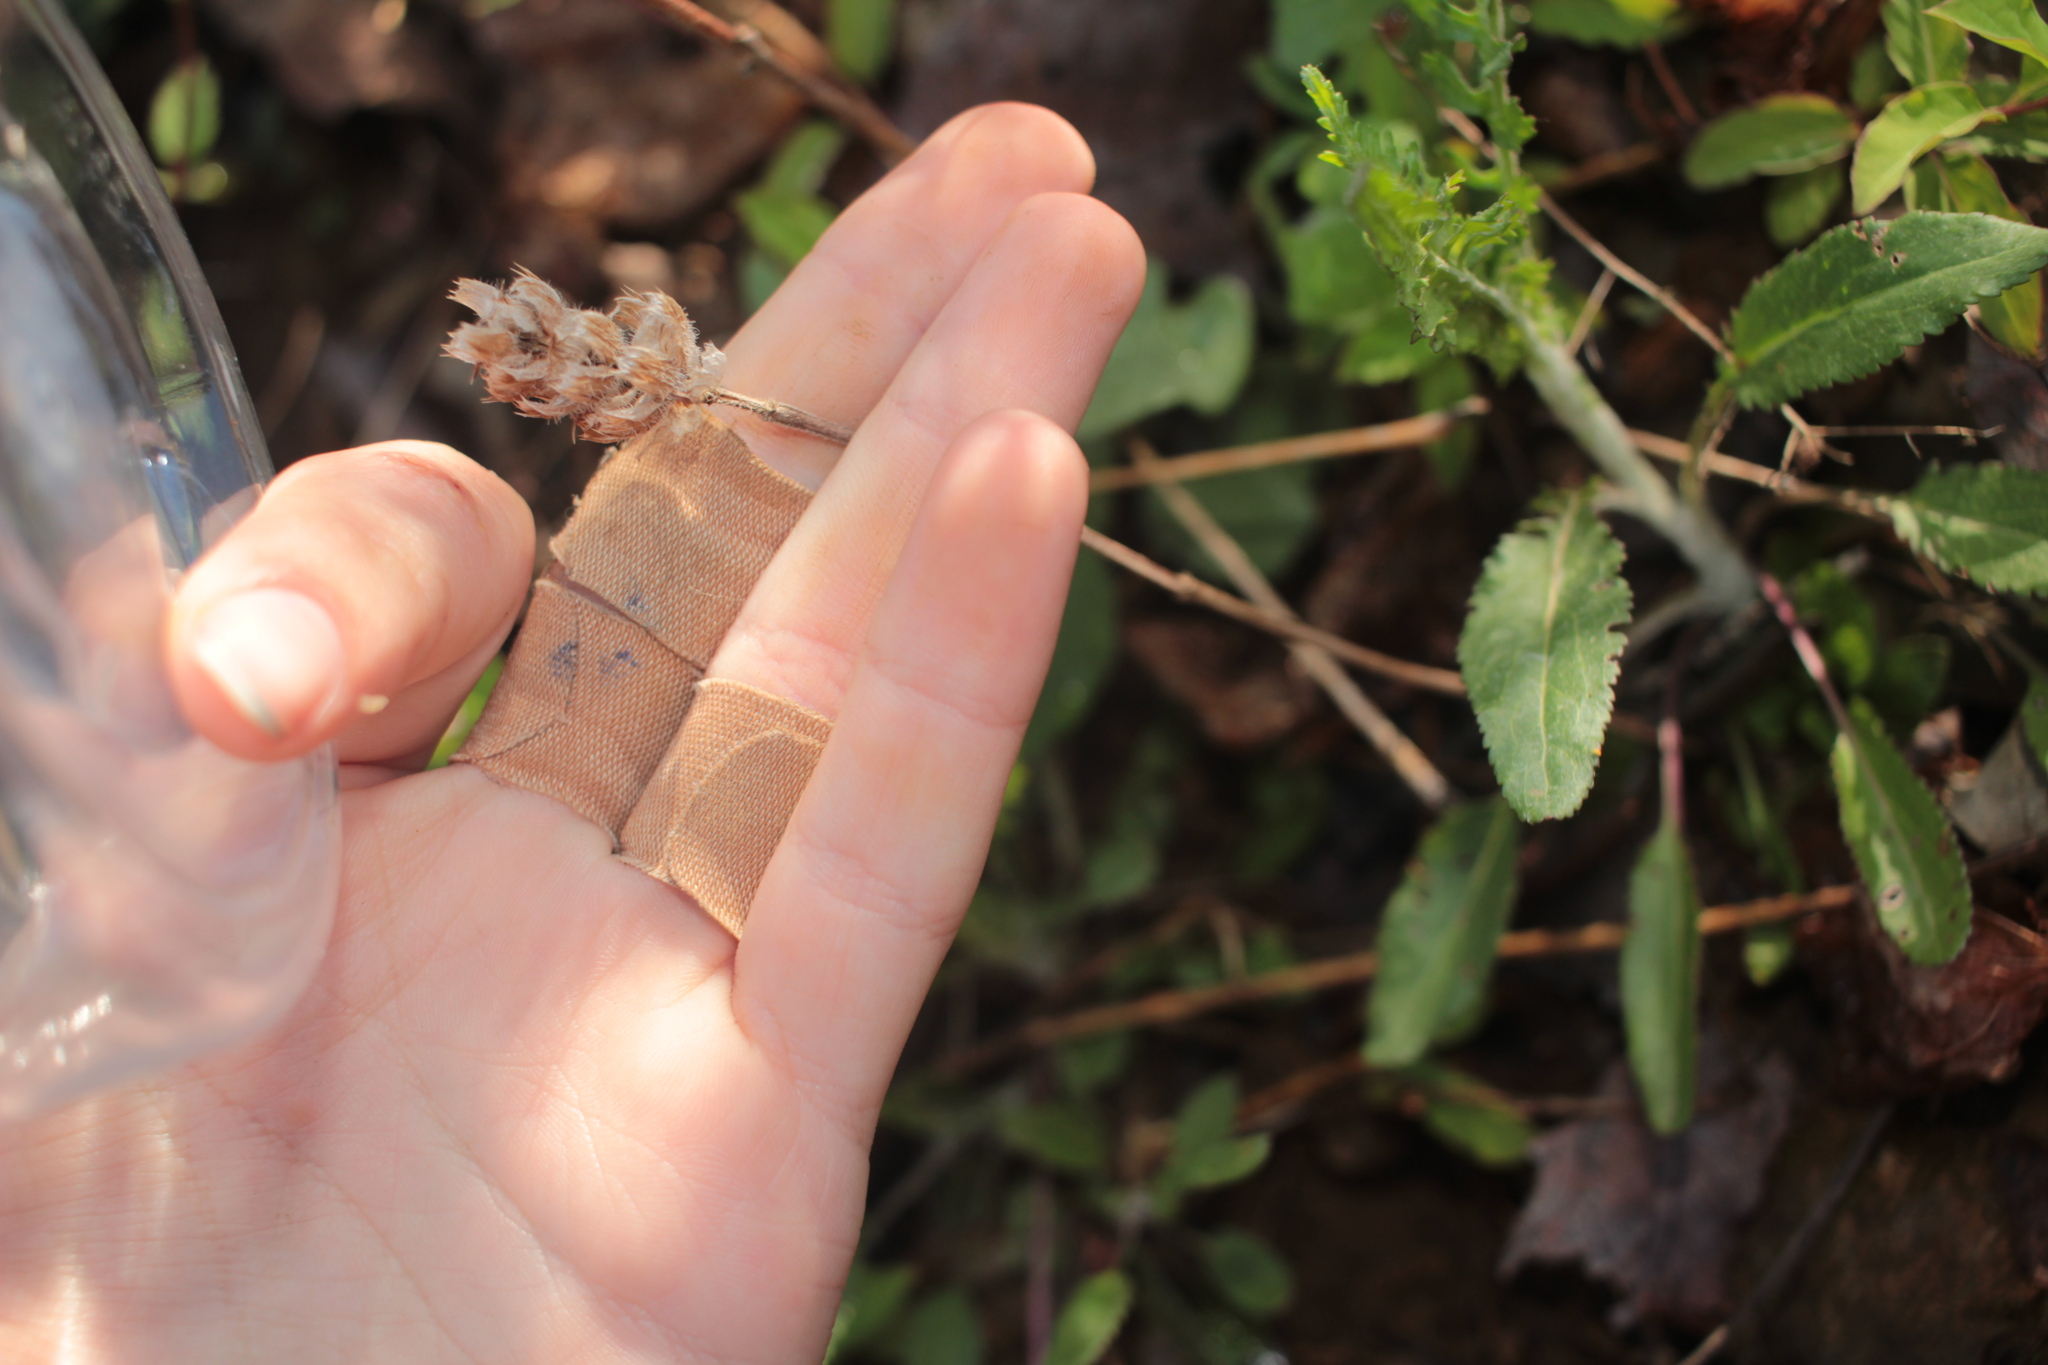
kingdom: Plantae
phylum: Tracheophyta
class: Magnoliopsida
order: Lamiales
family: Lamiaceae
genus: Prunella
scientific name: Prunella vulgaris
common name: Heal-all
